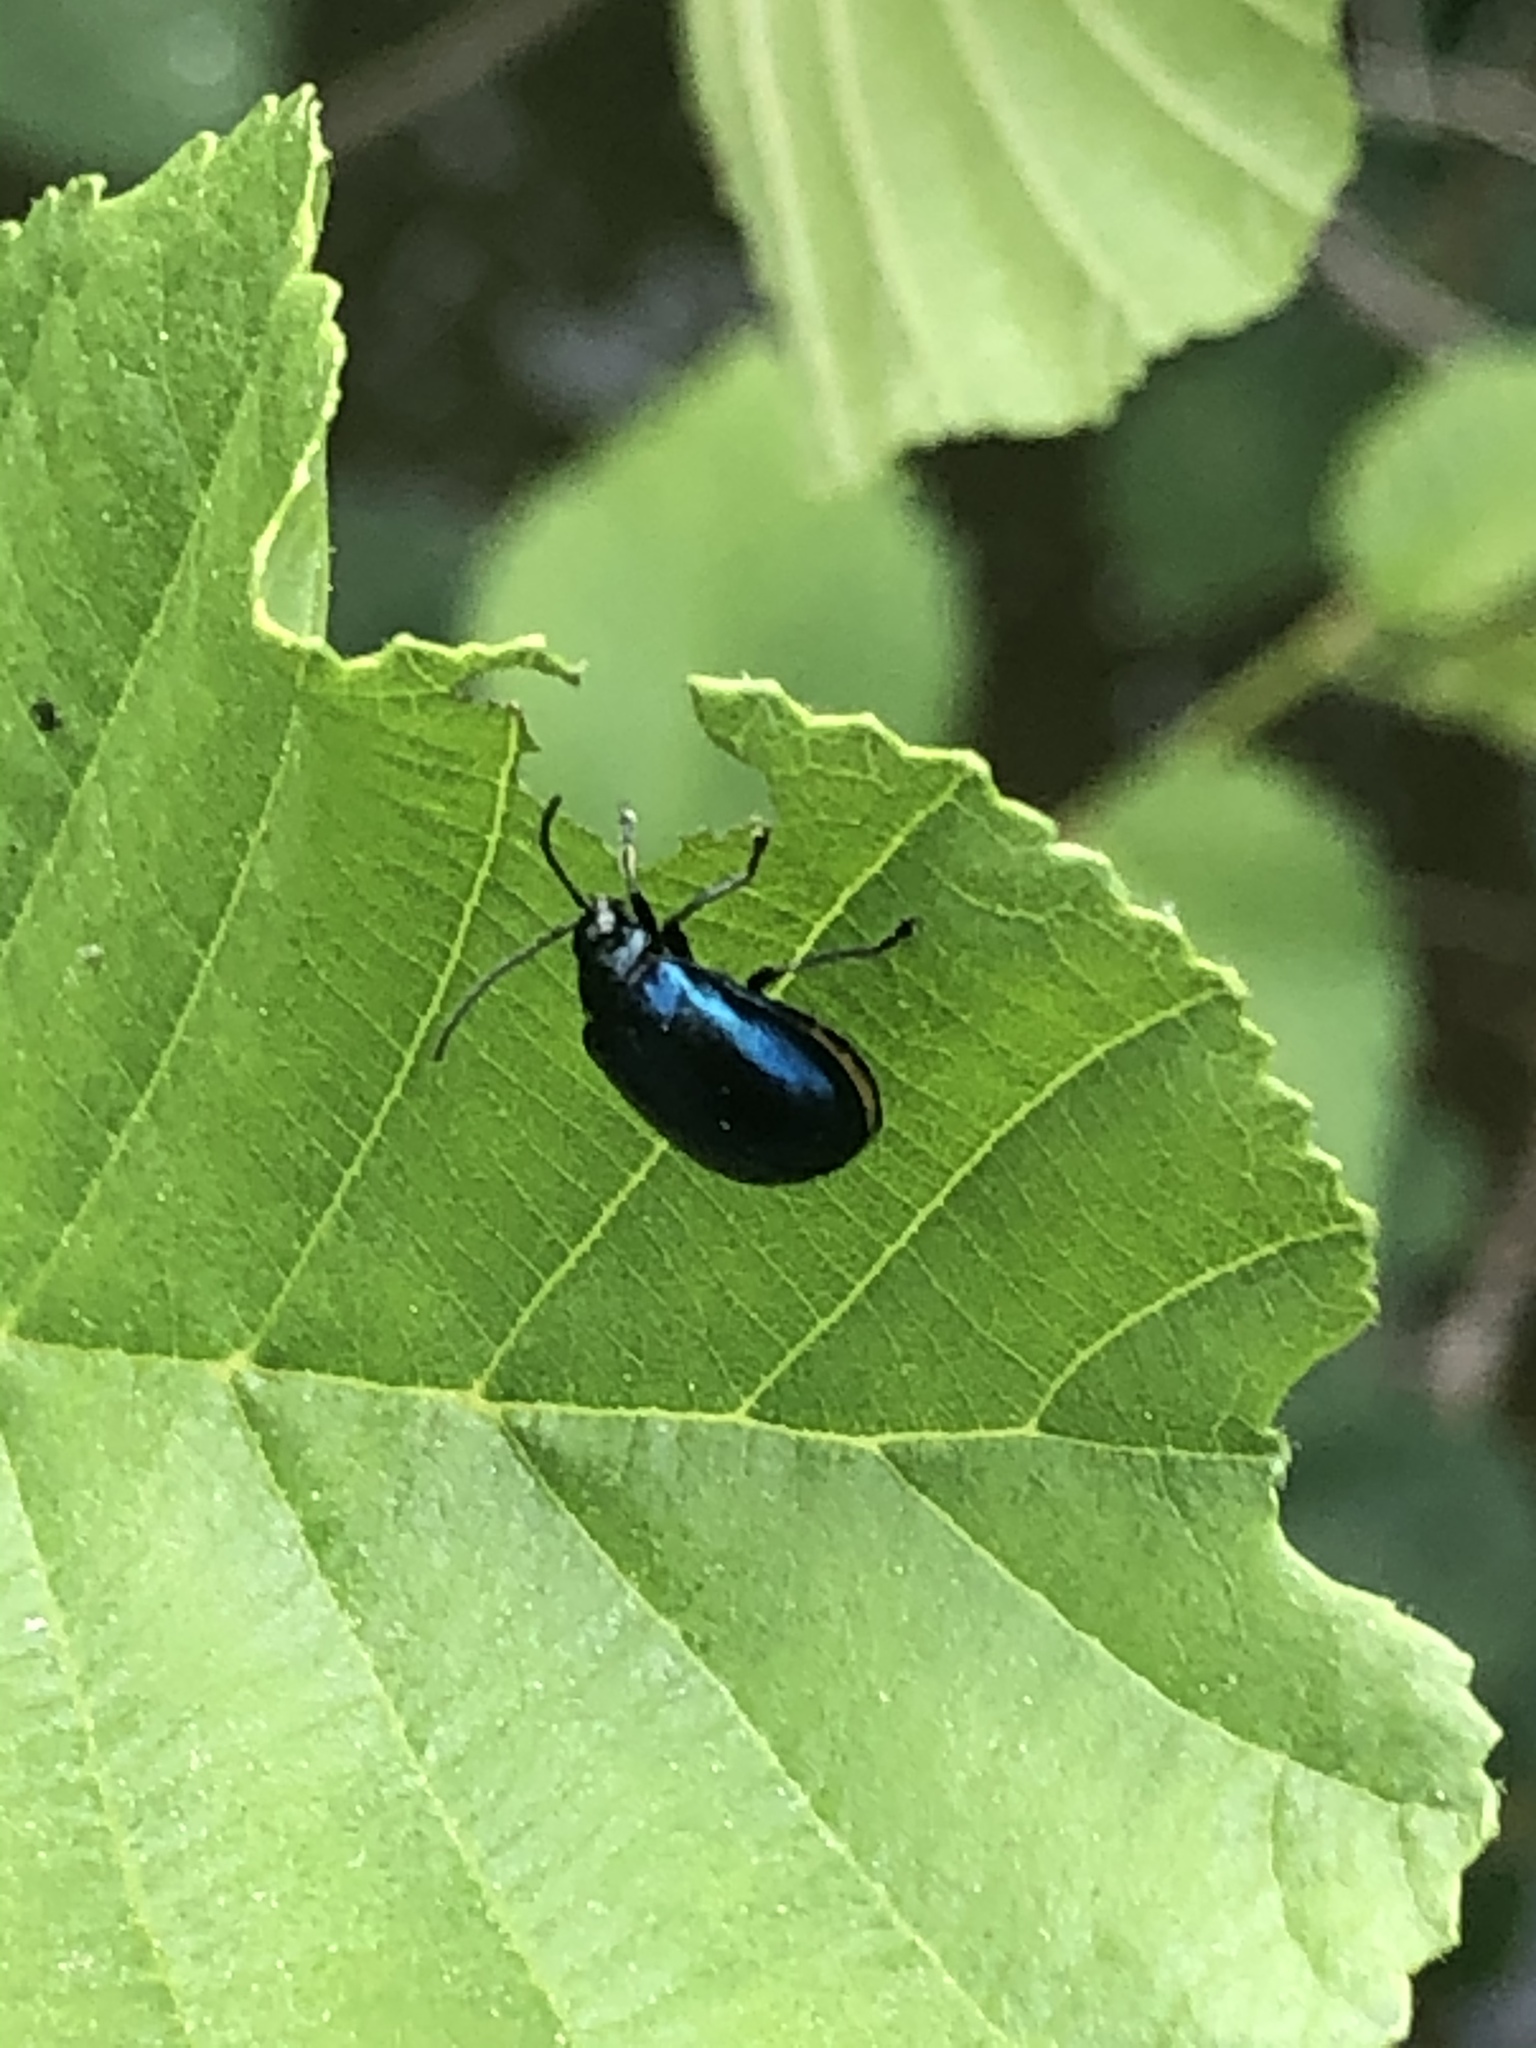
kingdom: Animalia
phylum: Arthropoda
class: Insecta
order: Coleoptera
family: Chrysomelidae
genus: Agelastica
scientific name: Agelastica alni
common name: Alder leaf beetle
